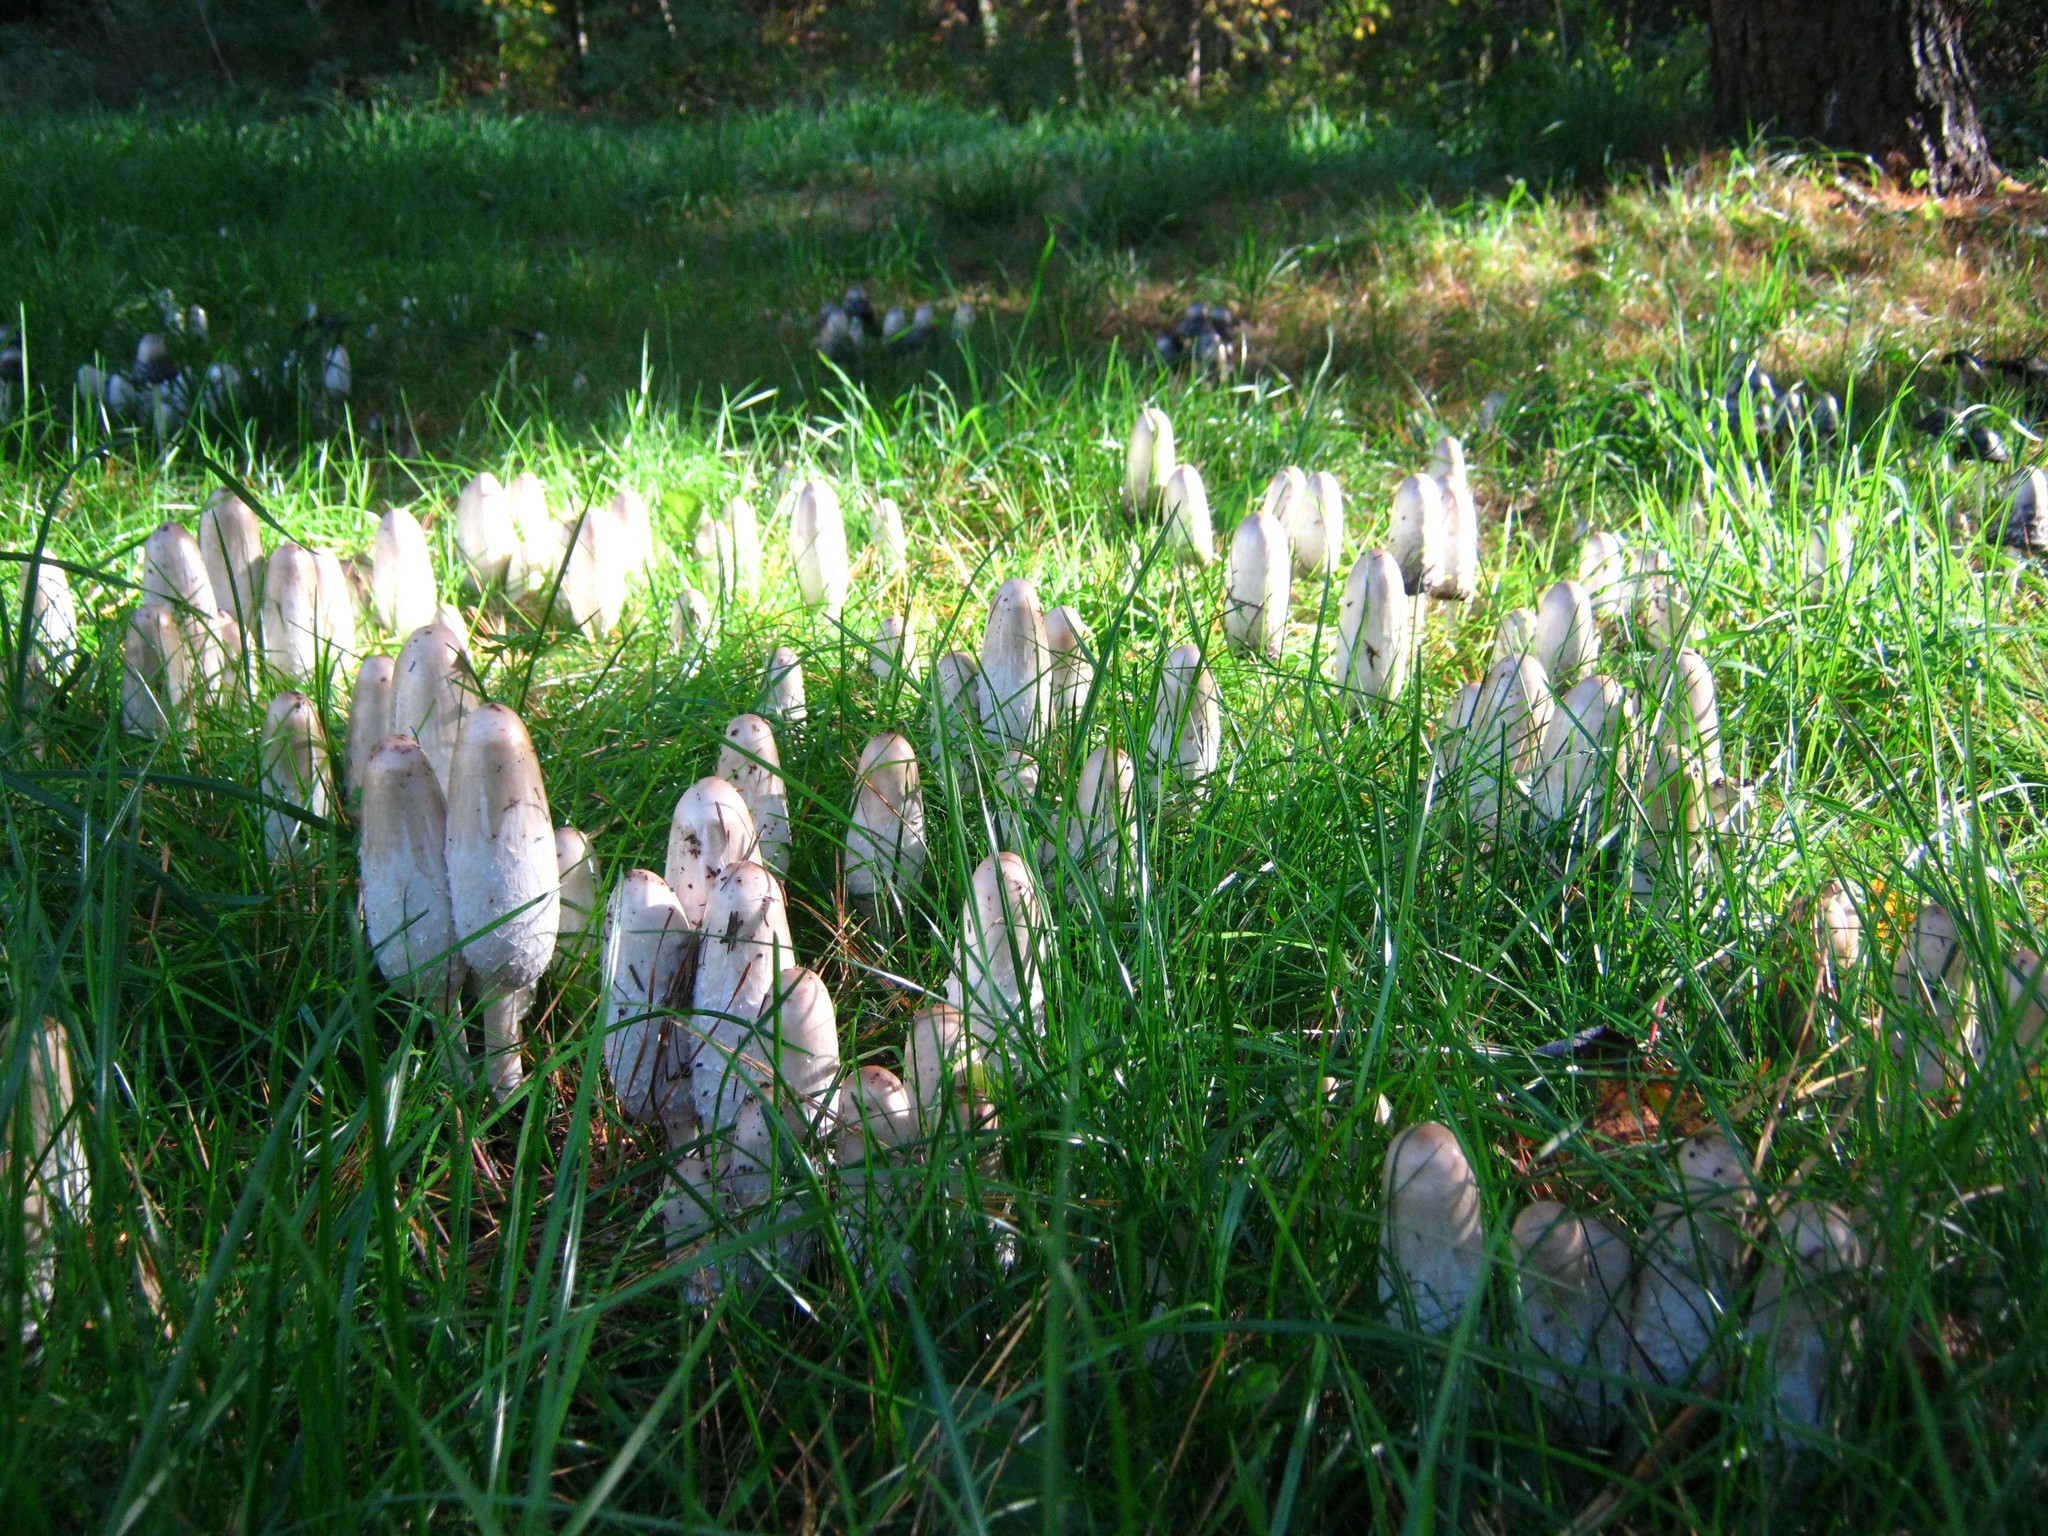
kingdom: Fungi
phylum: Basidiomycota
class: Agaricomycetes
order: Agaricales
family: Agaricaceae
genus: Coprinus
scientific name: Coprinus comatus
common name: Lawyer's wig
